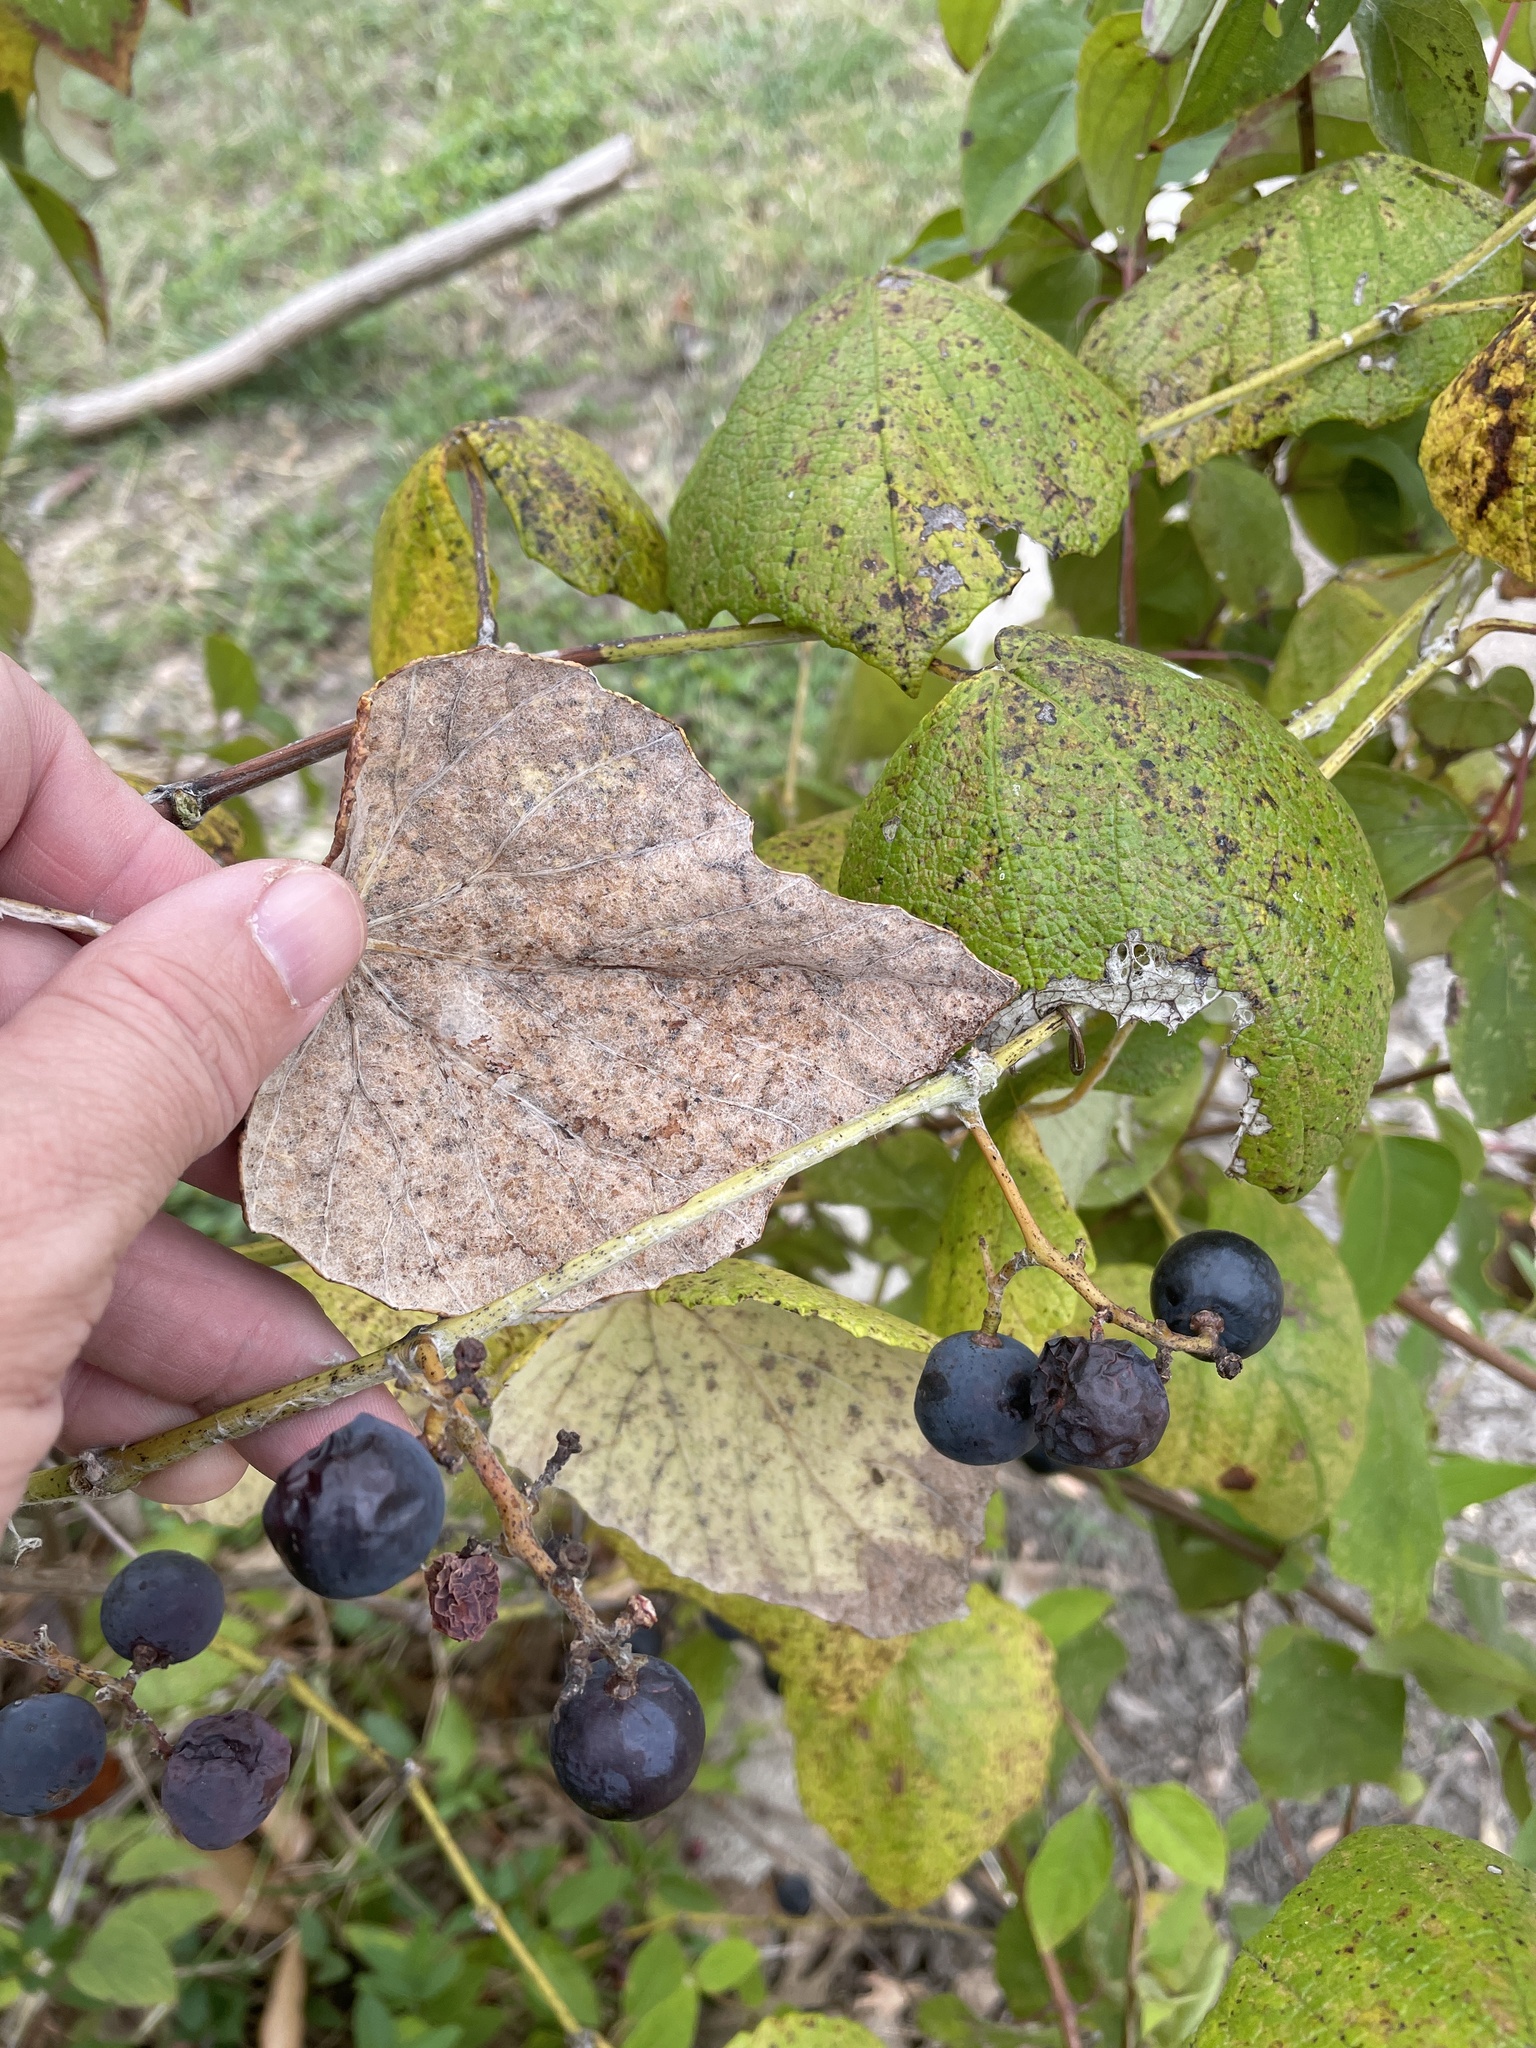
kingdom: Plantae
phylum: Tracheophyta
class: Magnoliopsida
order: Vitales
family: Vitaceae
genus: Vitis
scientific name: Vitis mustangensis
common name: Mustang grape
